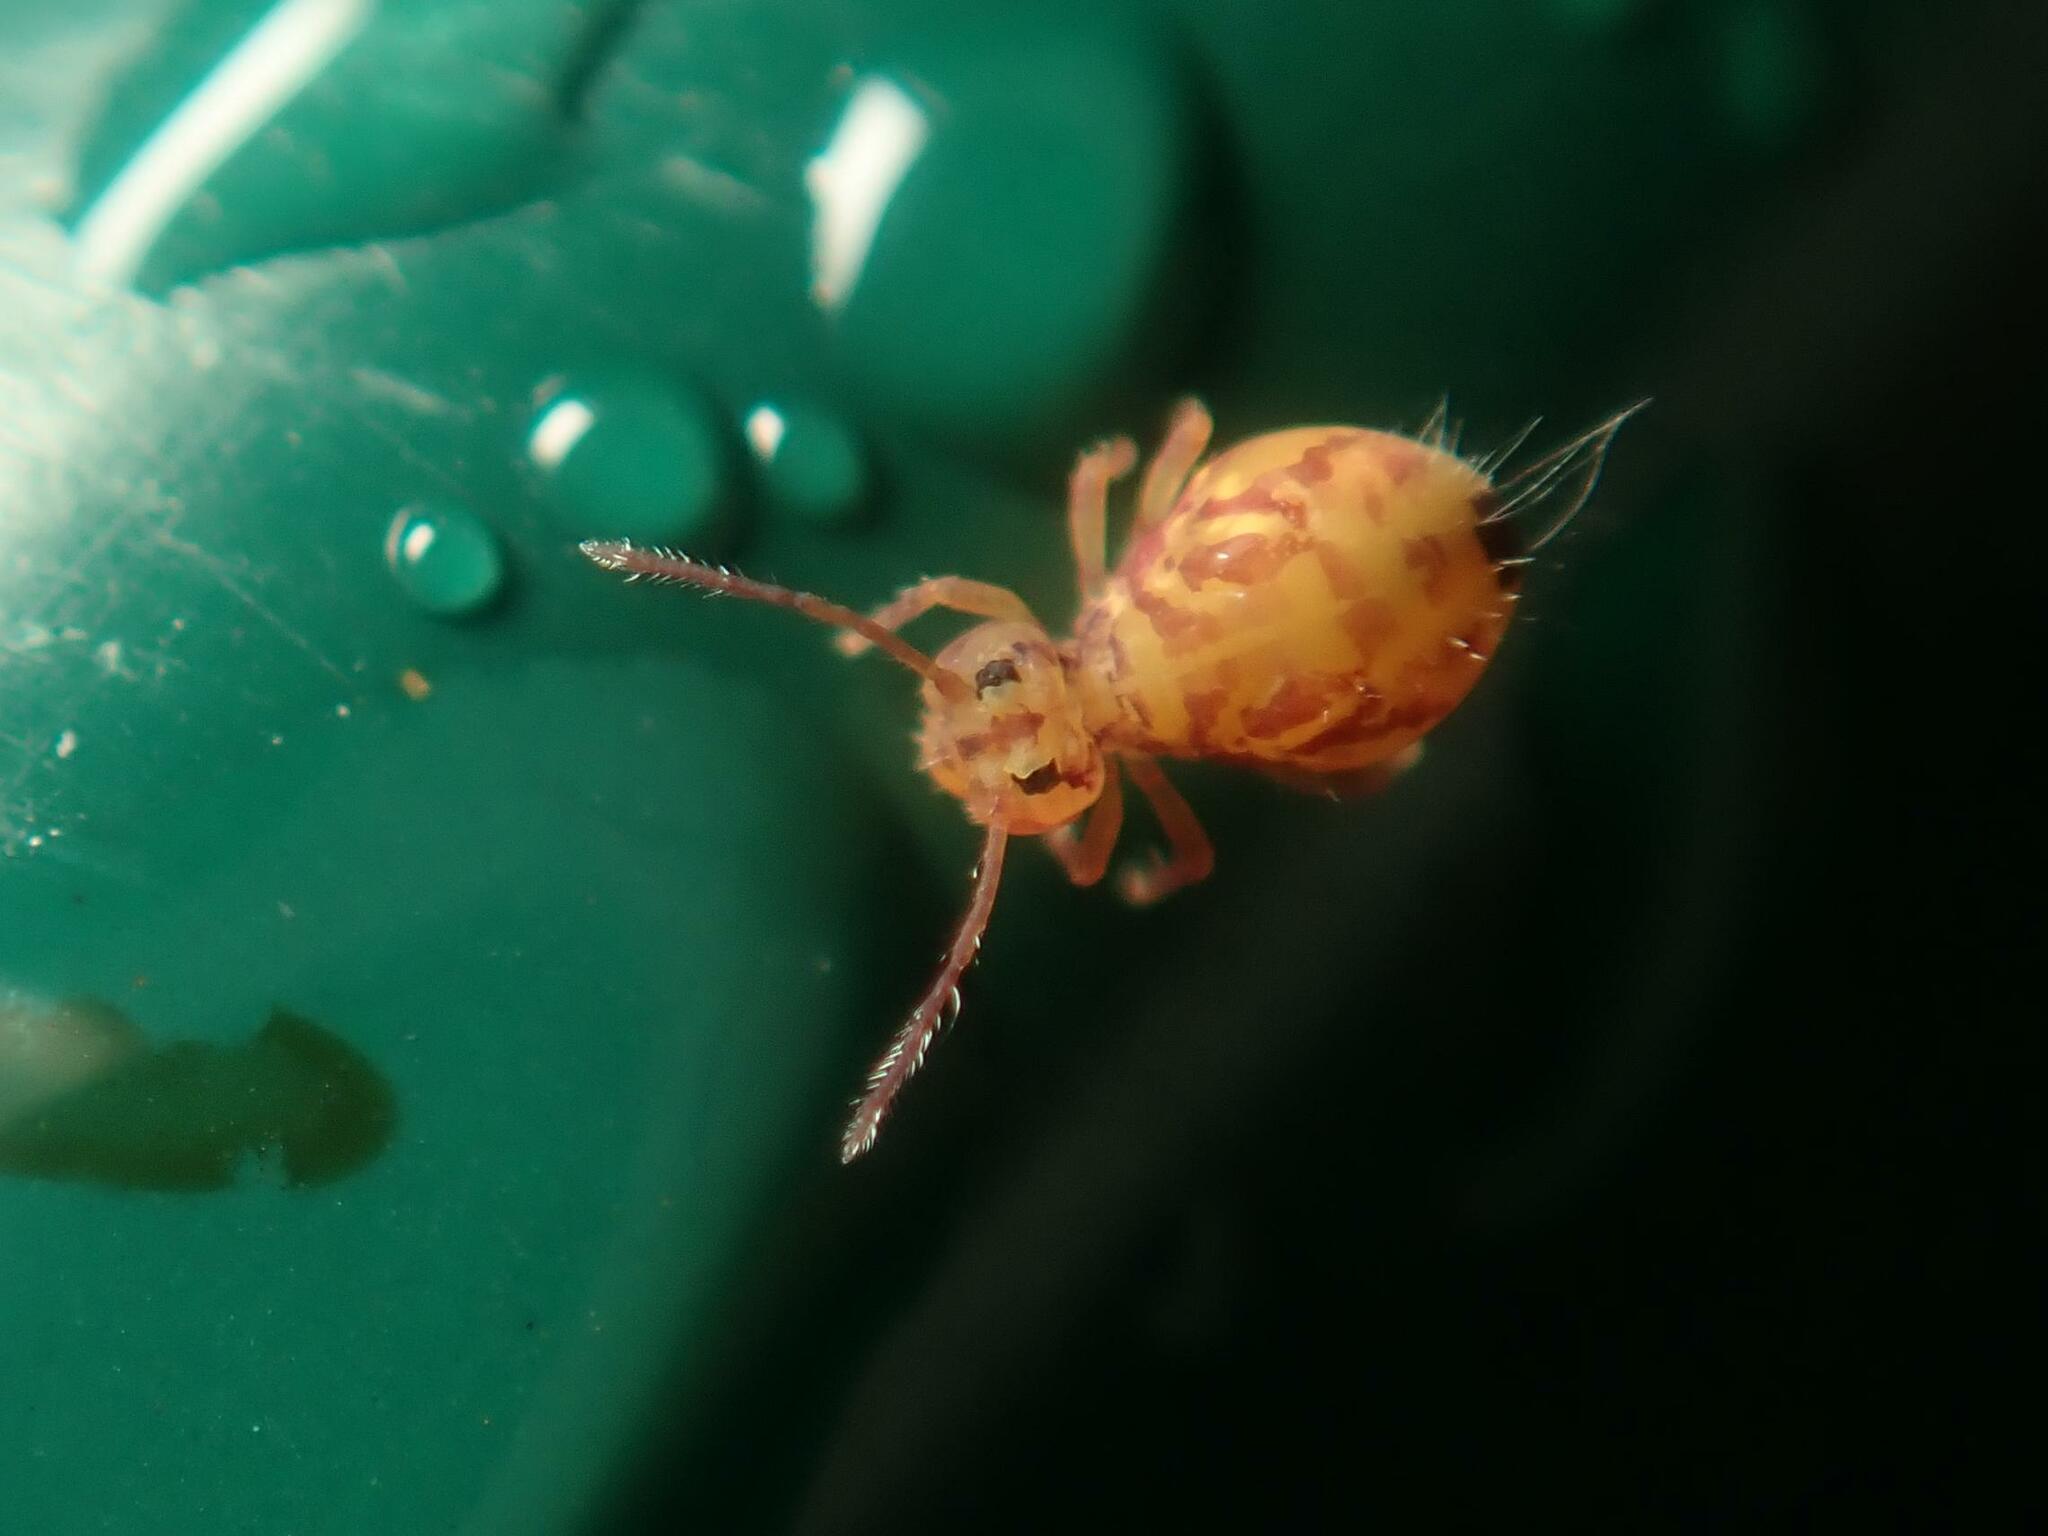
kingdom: Animalia
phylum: Arthropoda
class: Collembola
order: Symphypleona
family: Dicyrtomidae
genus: Dicyrtomina
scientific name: Dicyrtomina ornata
